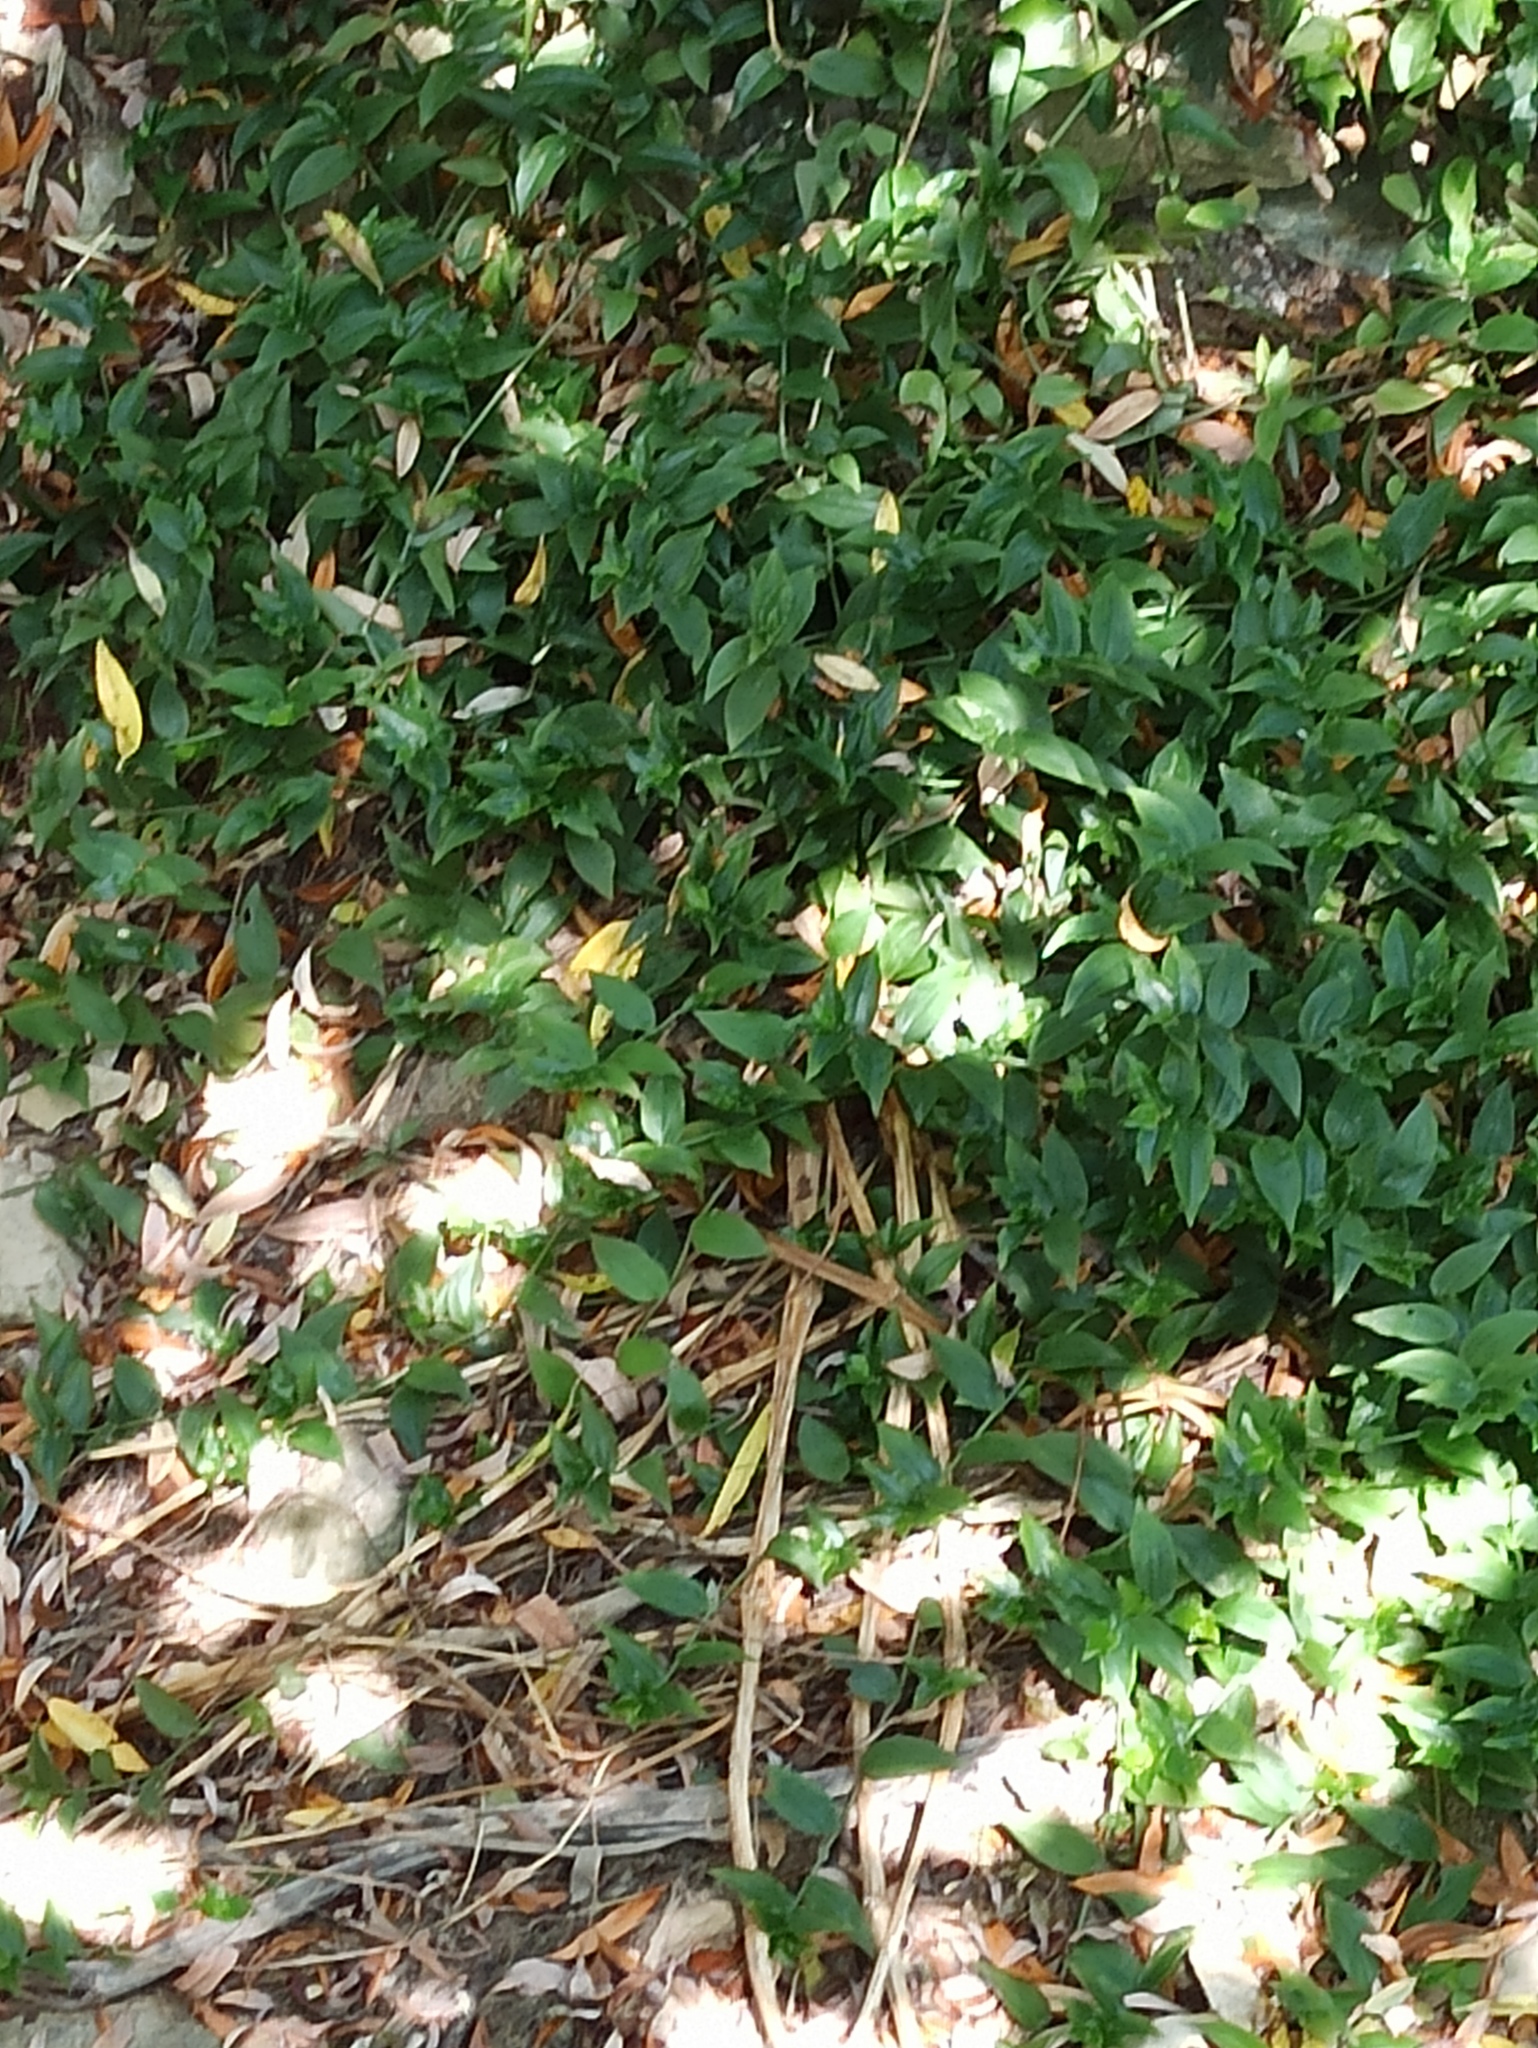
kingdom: Plantae
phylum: Tracheophyta
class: Liliopsida
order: Commelinales
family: Commelinaceae
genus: Tradescantia
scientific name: Tradescantia fluminensis
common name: Wandering-jew
